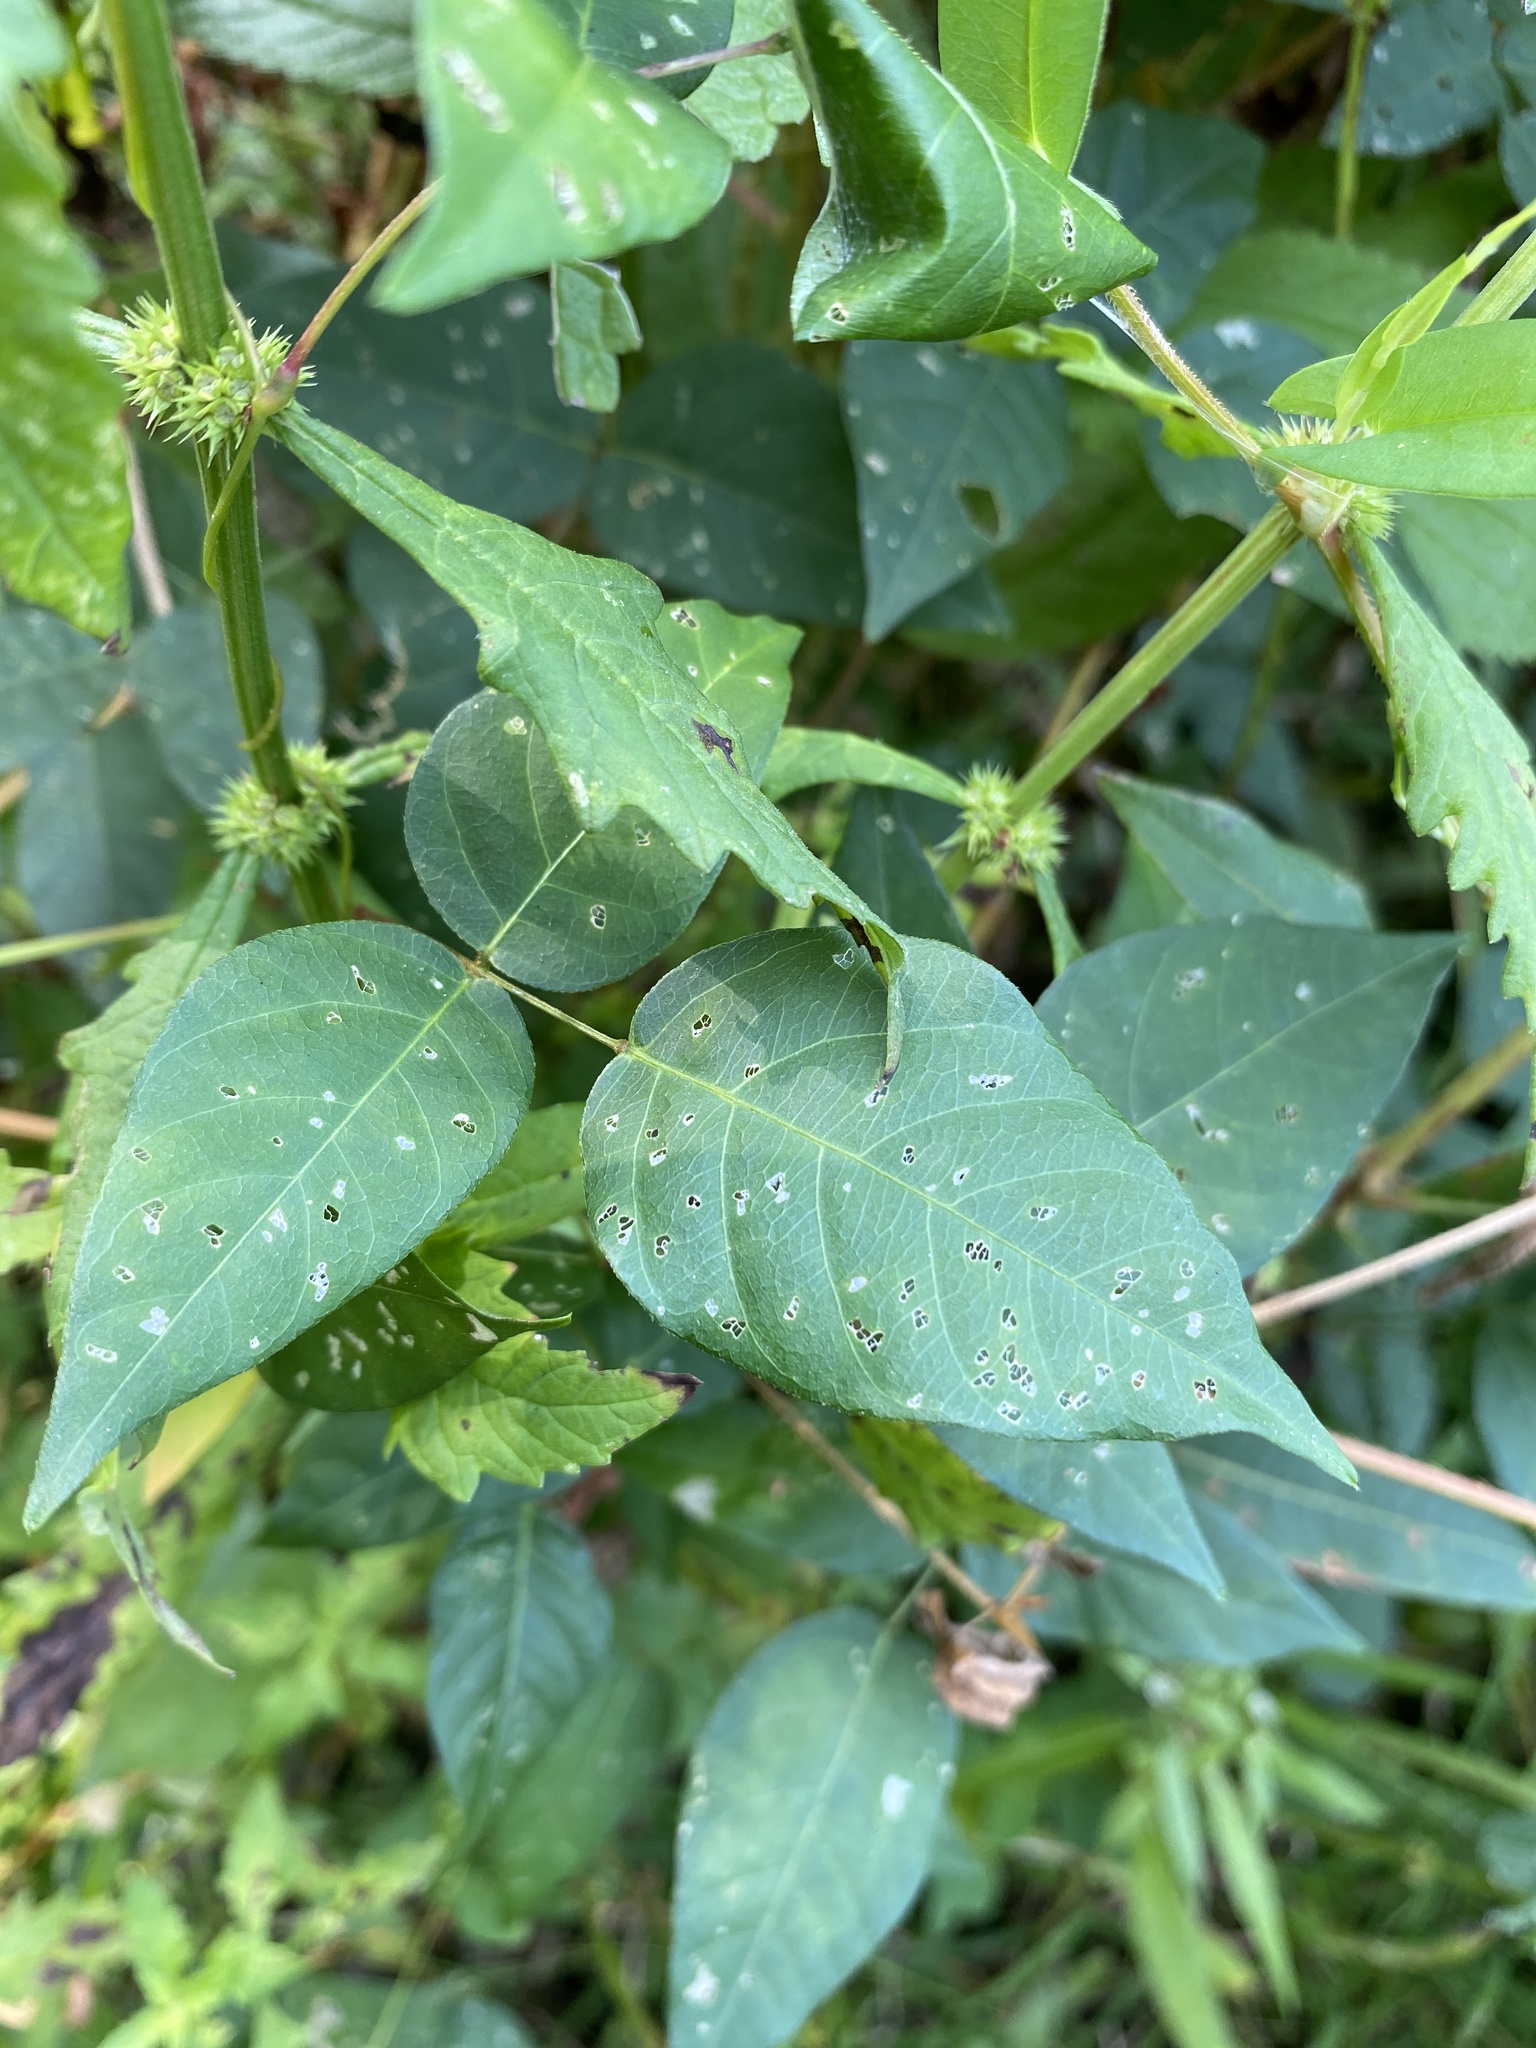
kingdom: Plantae
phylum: Tracheophyta
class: Magnoliopsida
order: Fabales
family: Fabaceae
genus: Apios
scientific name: Apios americana
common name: American potato-bean
